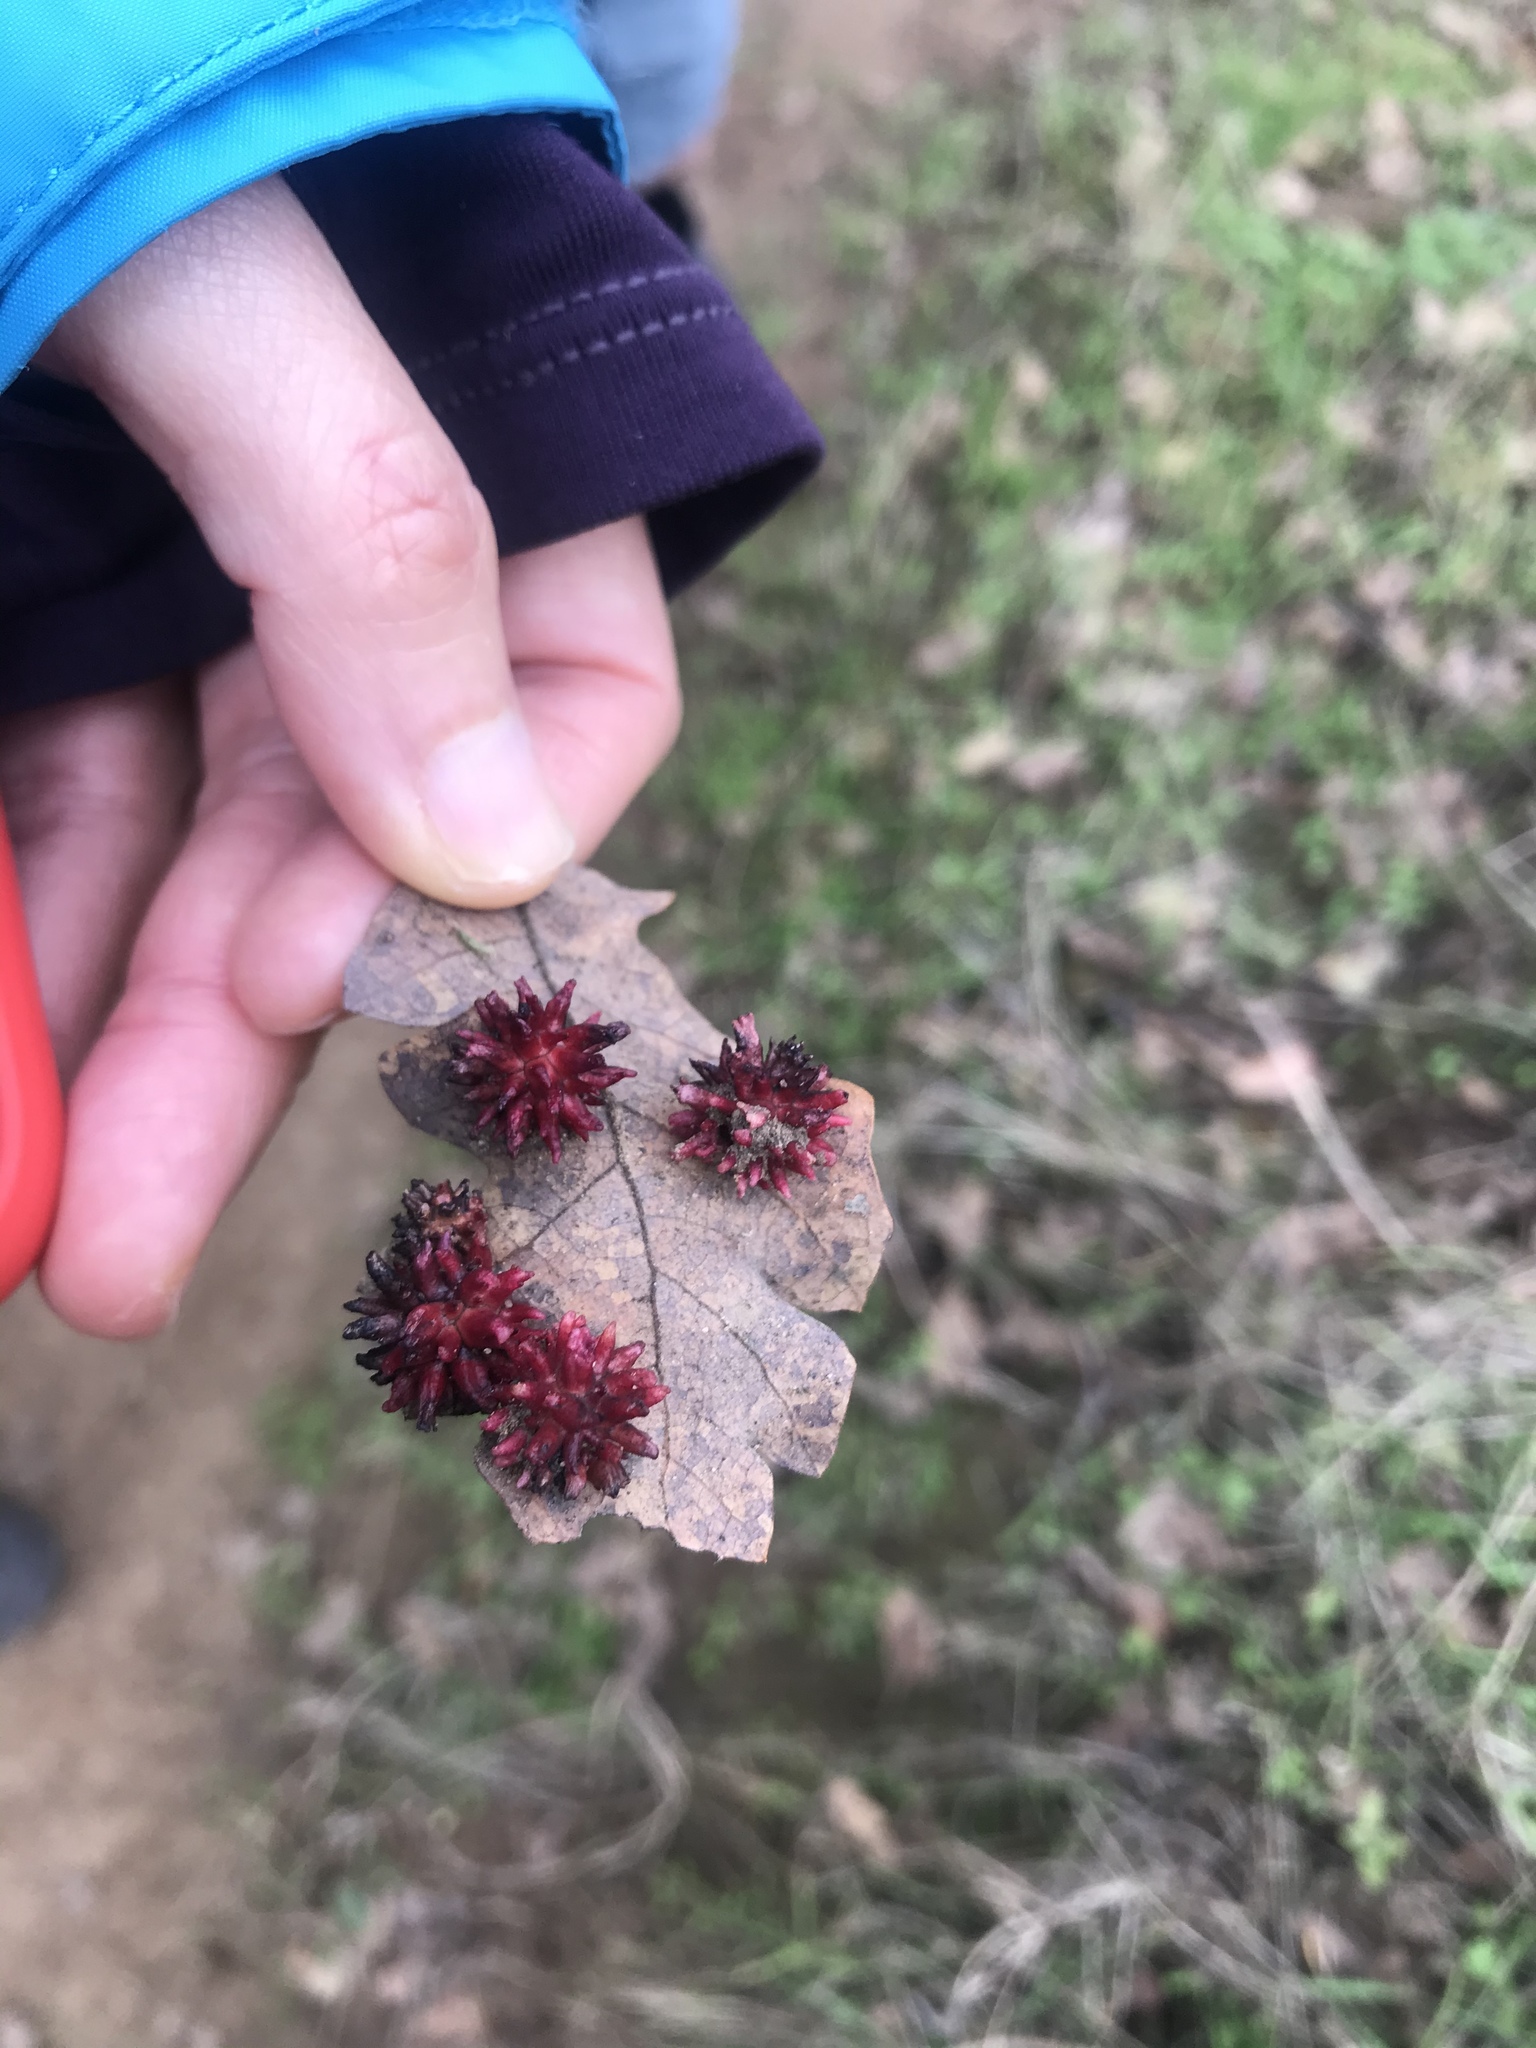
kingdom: Animalia
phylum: Arthropoda
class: Insecta
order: Hymenoptera
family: Cynipidae
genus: Cynips
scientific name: Cynips
